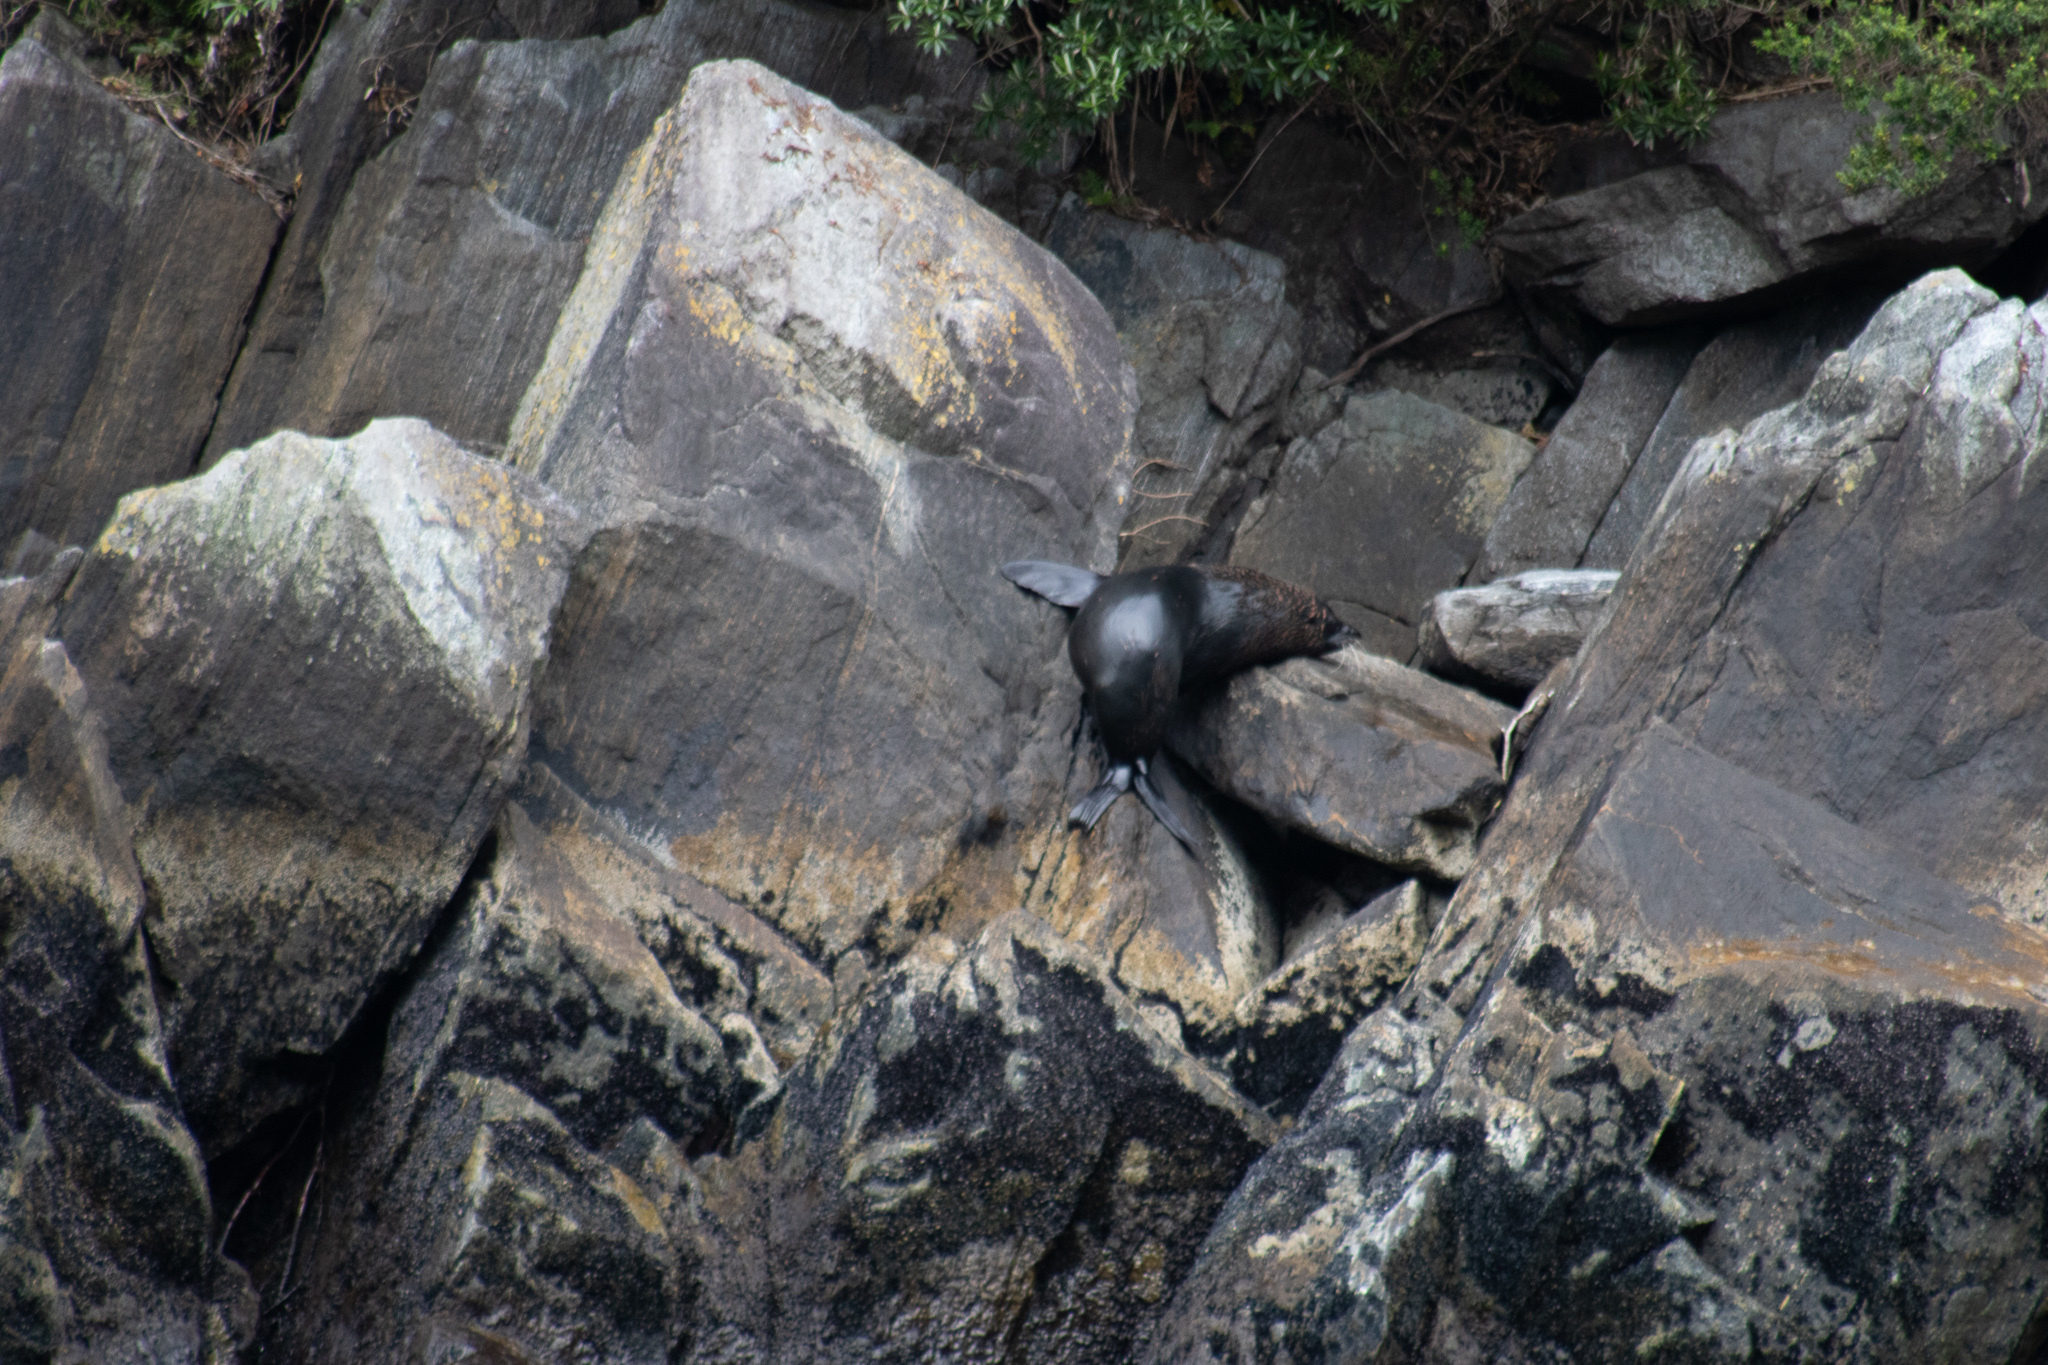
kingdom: Animalia
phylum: Chordata
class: Mammalia
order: Carnivora
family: Otariidae
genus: Arctocephalus
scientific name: Arctocephalus forsteri
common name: New zealand fur seal
